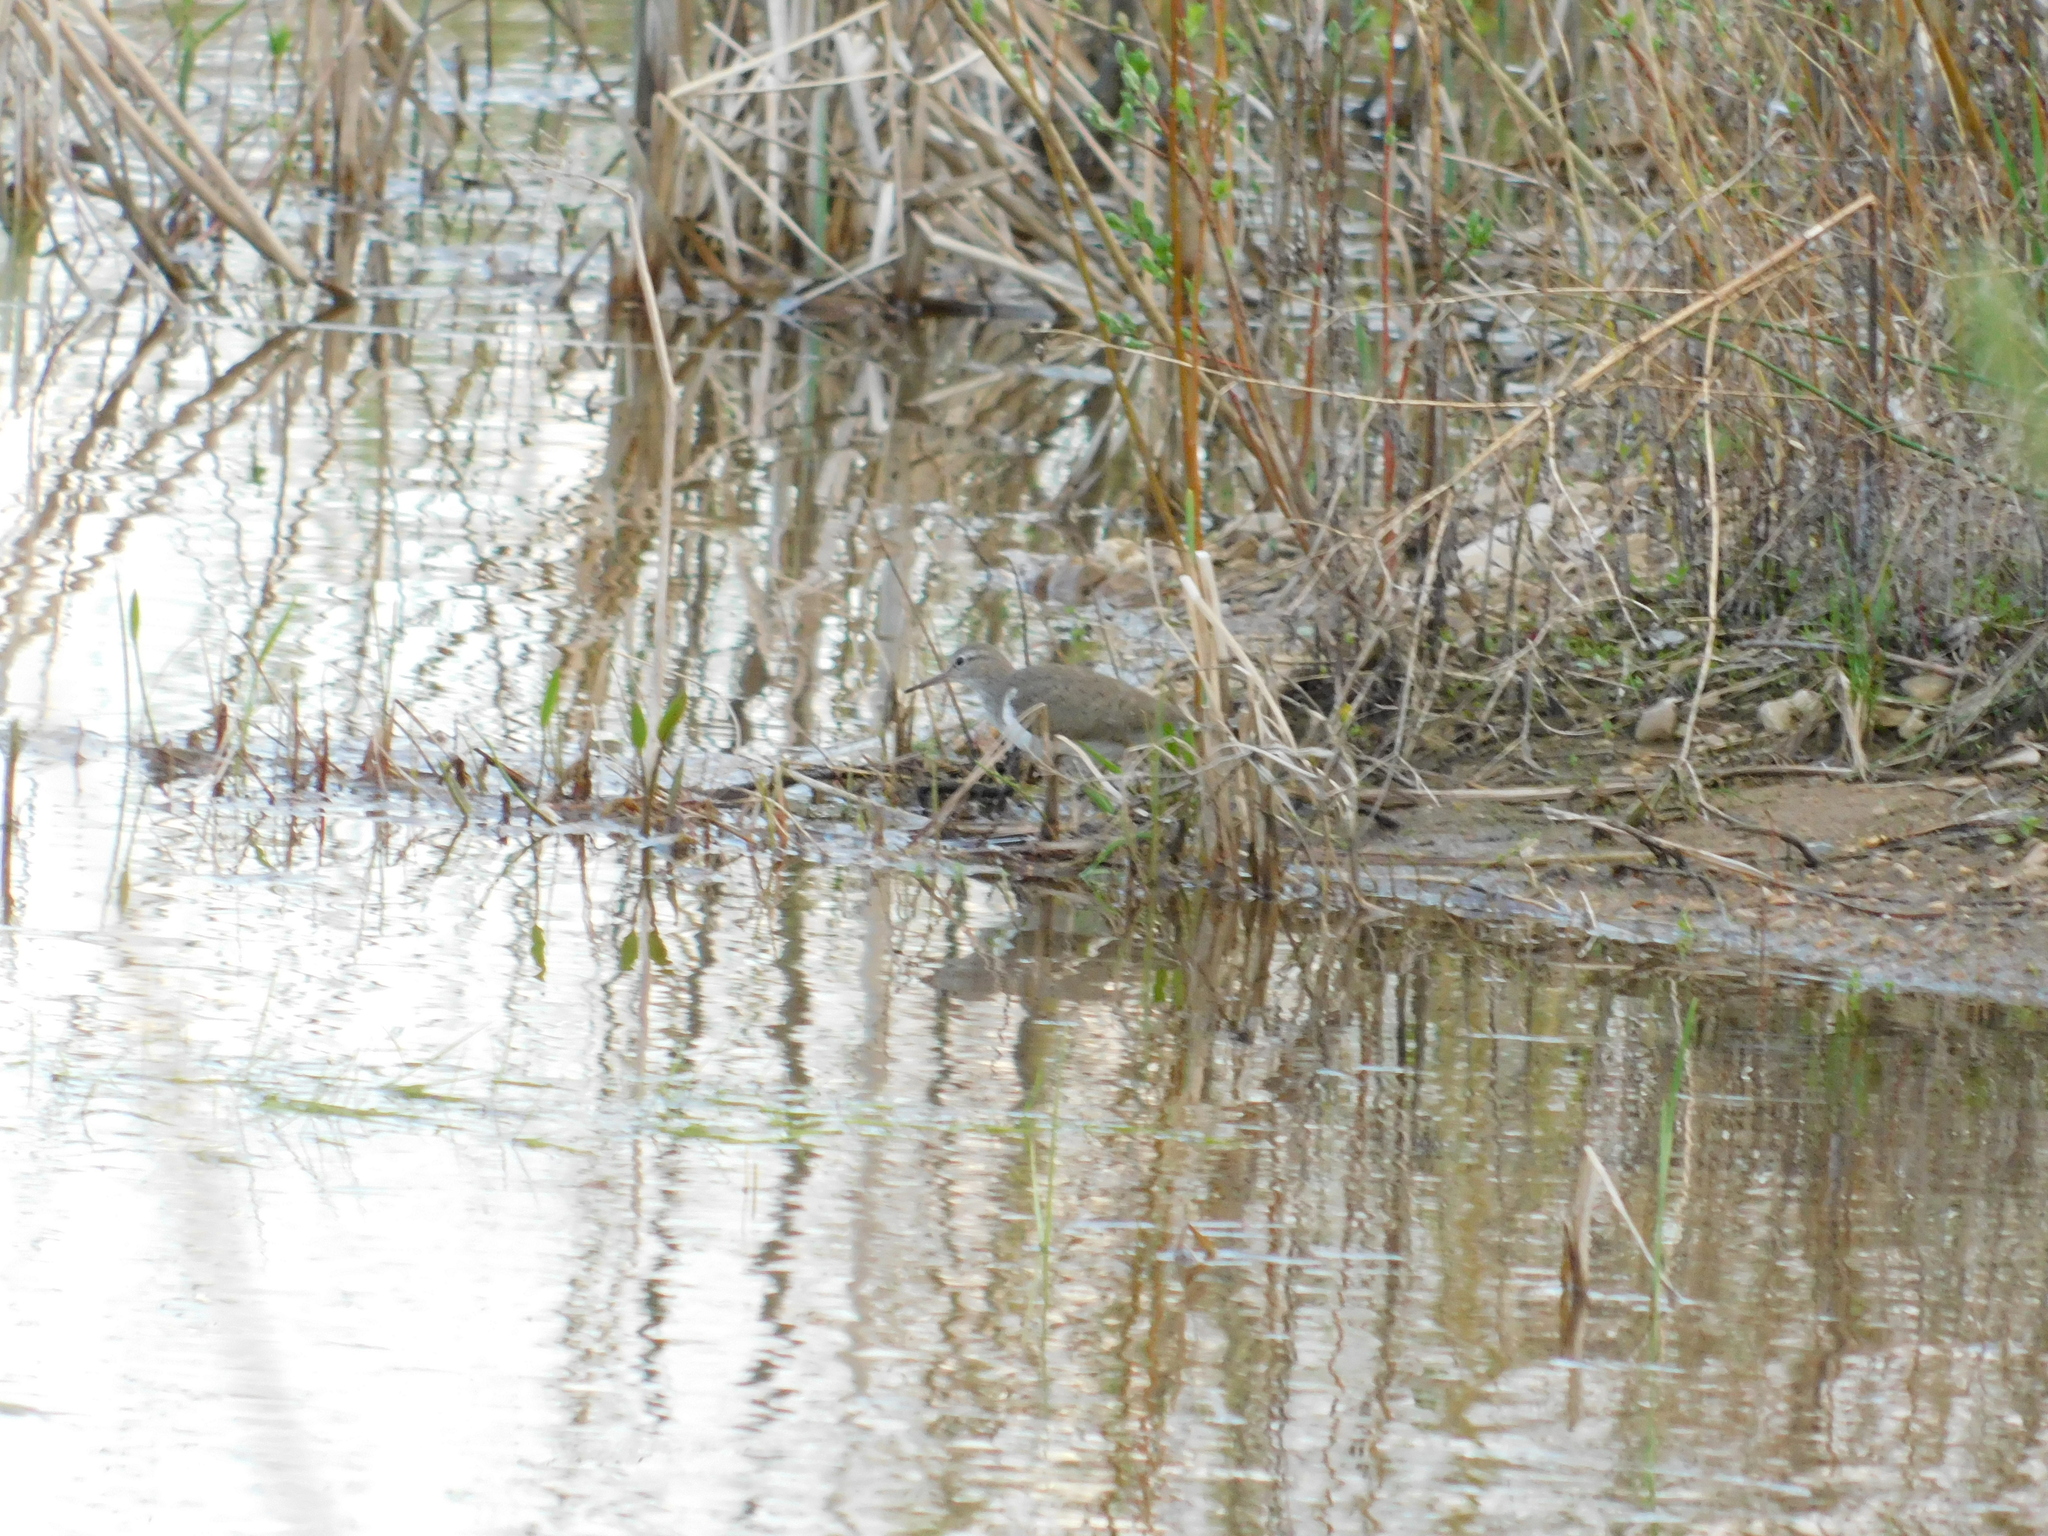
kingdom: Animalia
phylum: Chordata
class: Aves
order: Charadriiformes
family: Scolopacidae
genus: Actitis
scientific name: Actitis hypoleucos
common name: Common sandpiper
